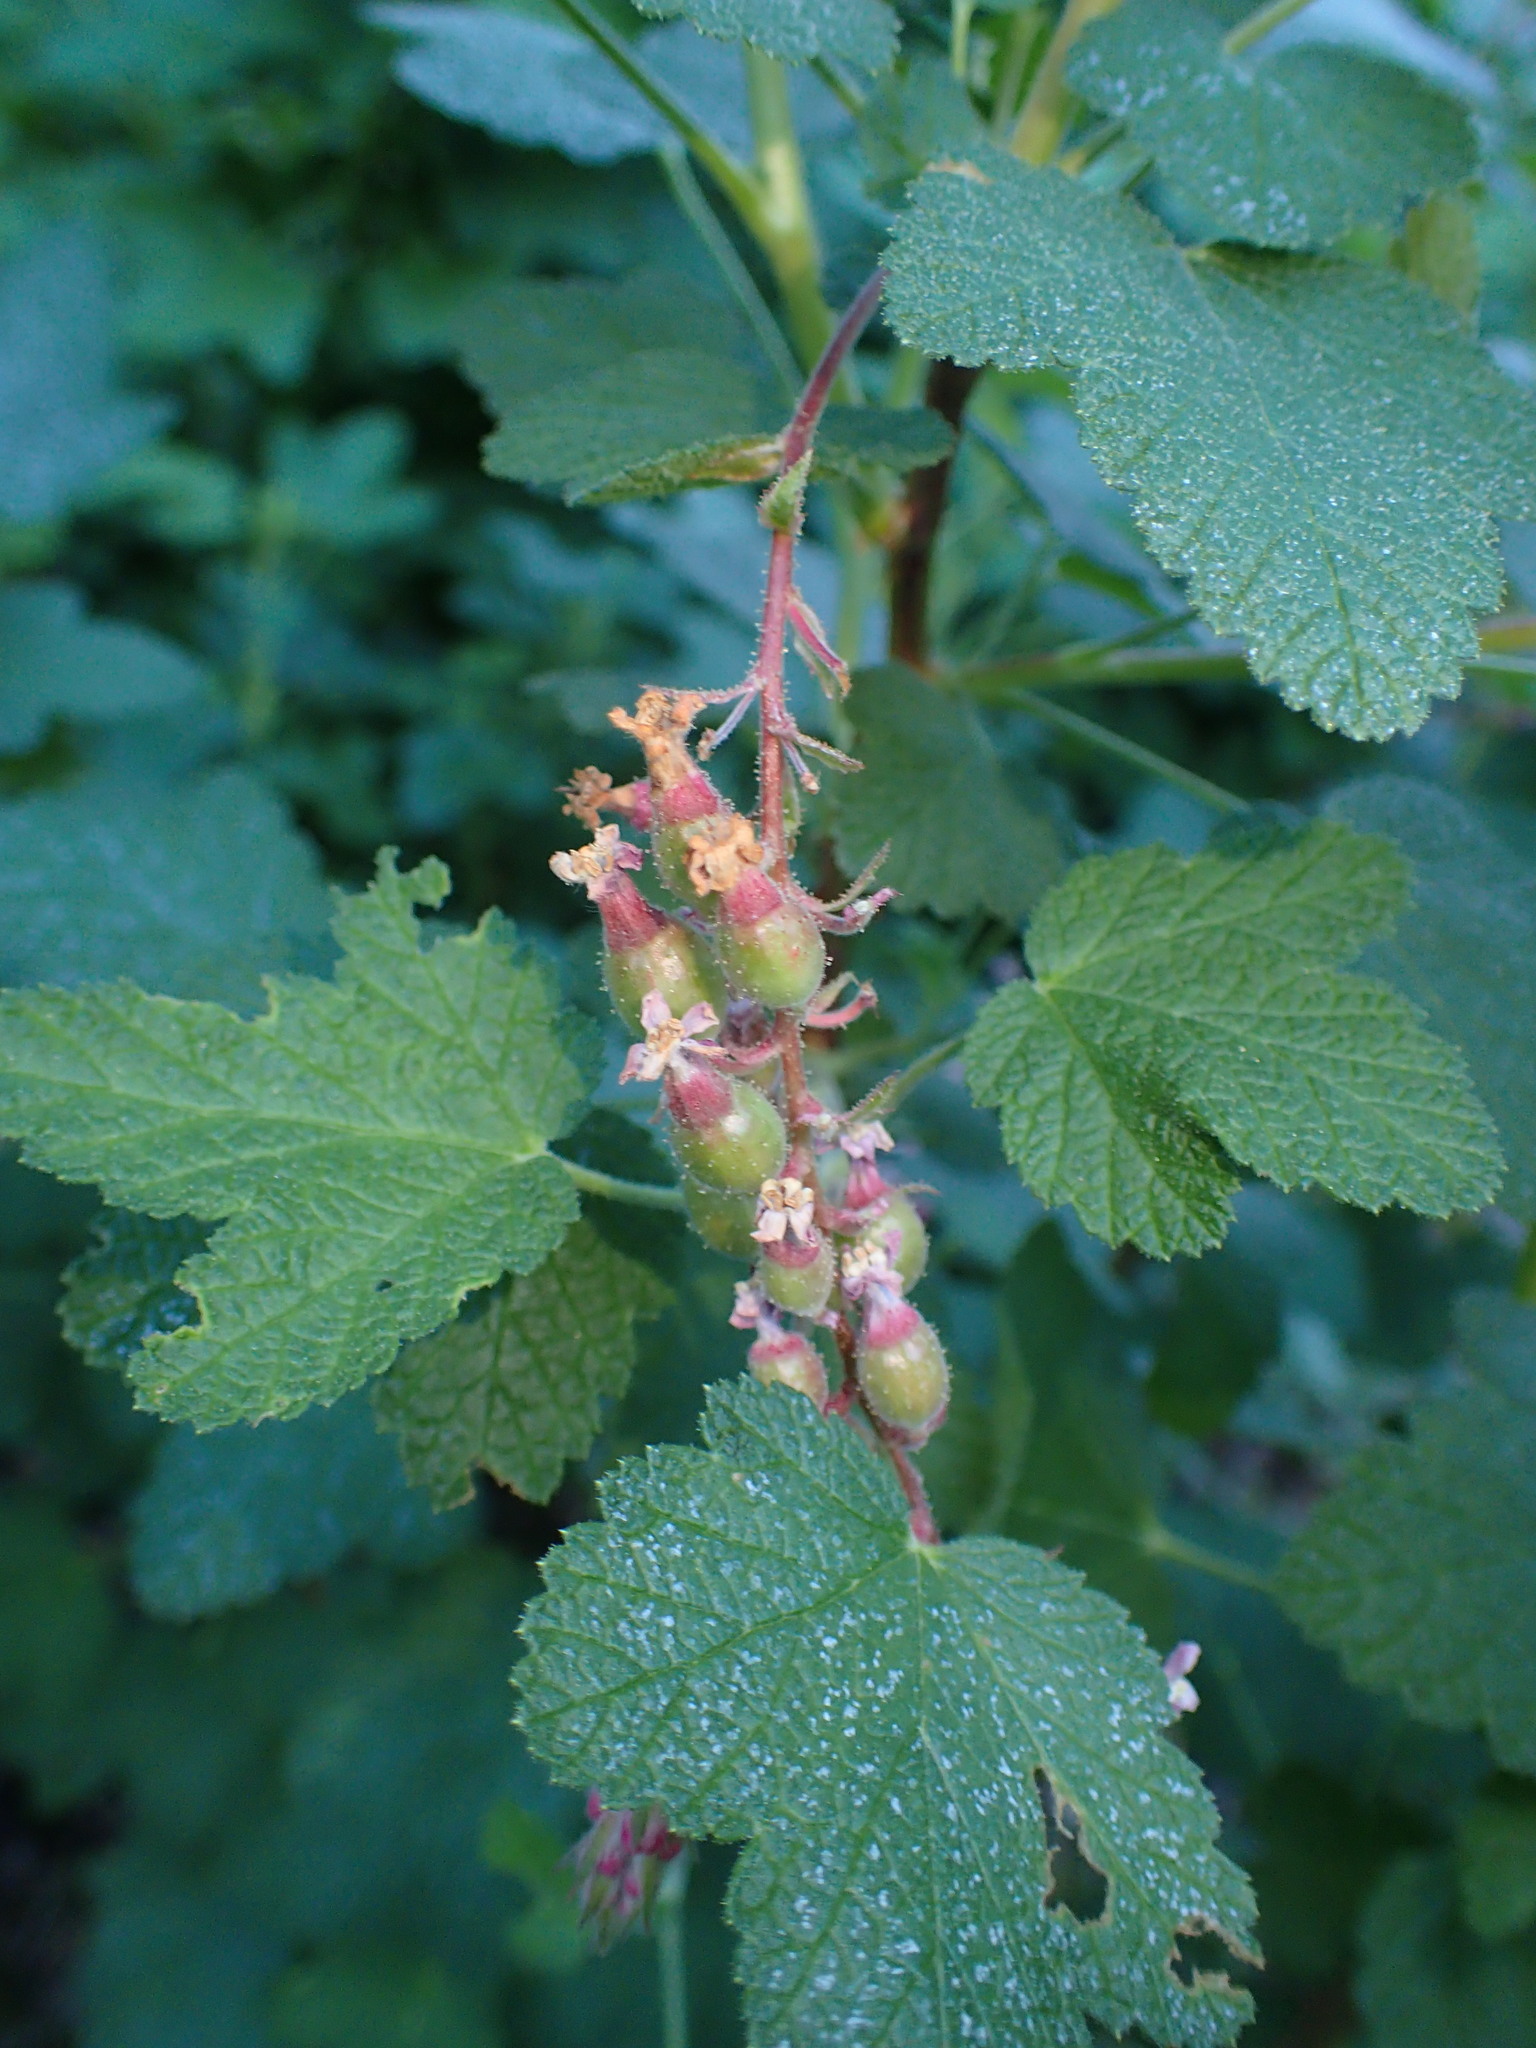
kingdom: Plantae
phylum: Tracheophyta
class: Magnoliopsida
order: Saxifragales
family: Grossulariaceae
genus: Ribes
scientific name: Ribes malvaceum
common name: Chaparral currant
